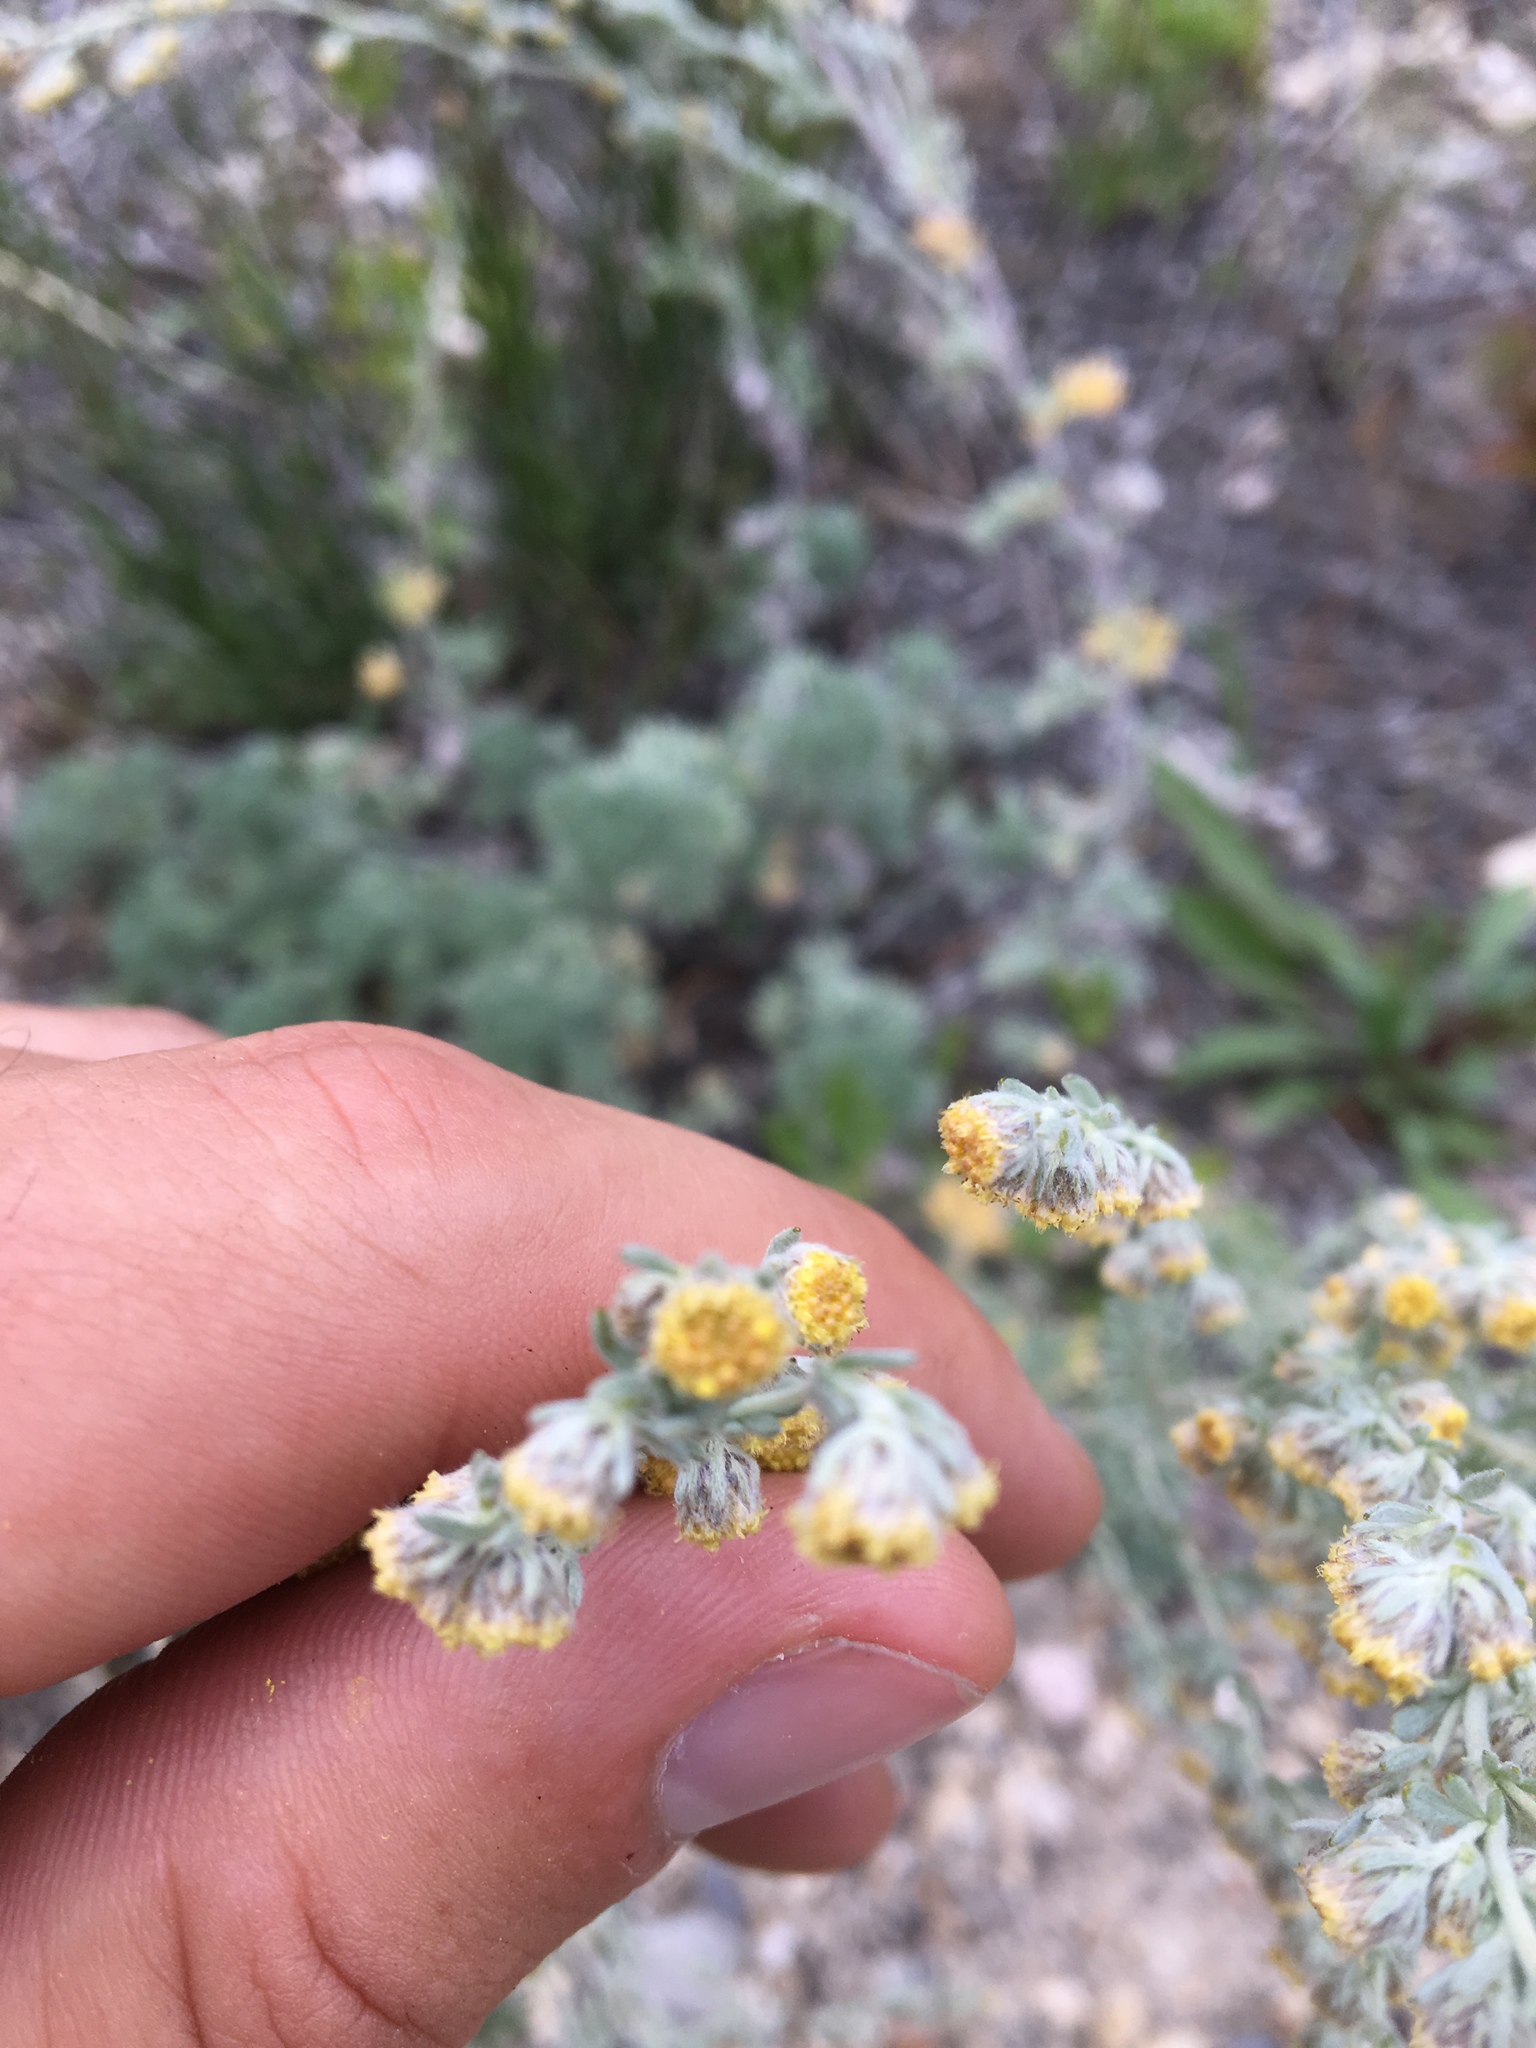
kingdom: Plantae
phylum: Tracheophyta
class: Magnoliopsida
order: Asterales
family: Asteraceae
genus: Artemisia
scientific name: Artemisia frigida
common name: Prairie sagewort
